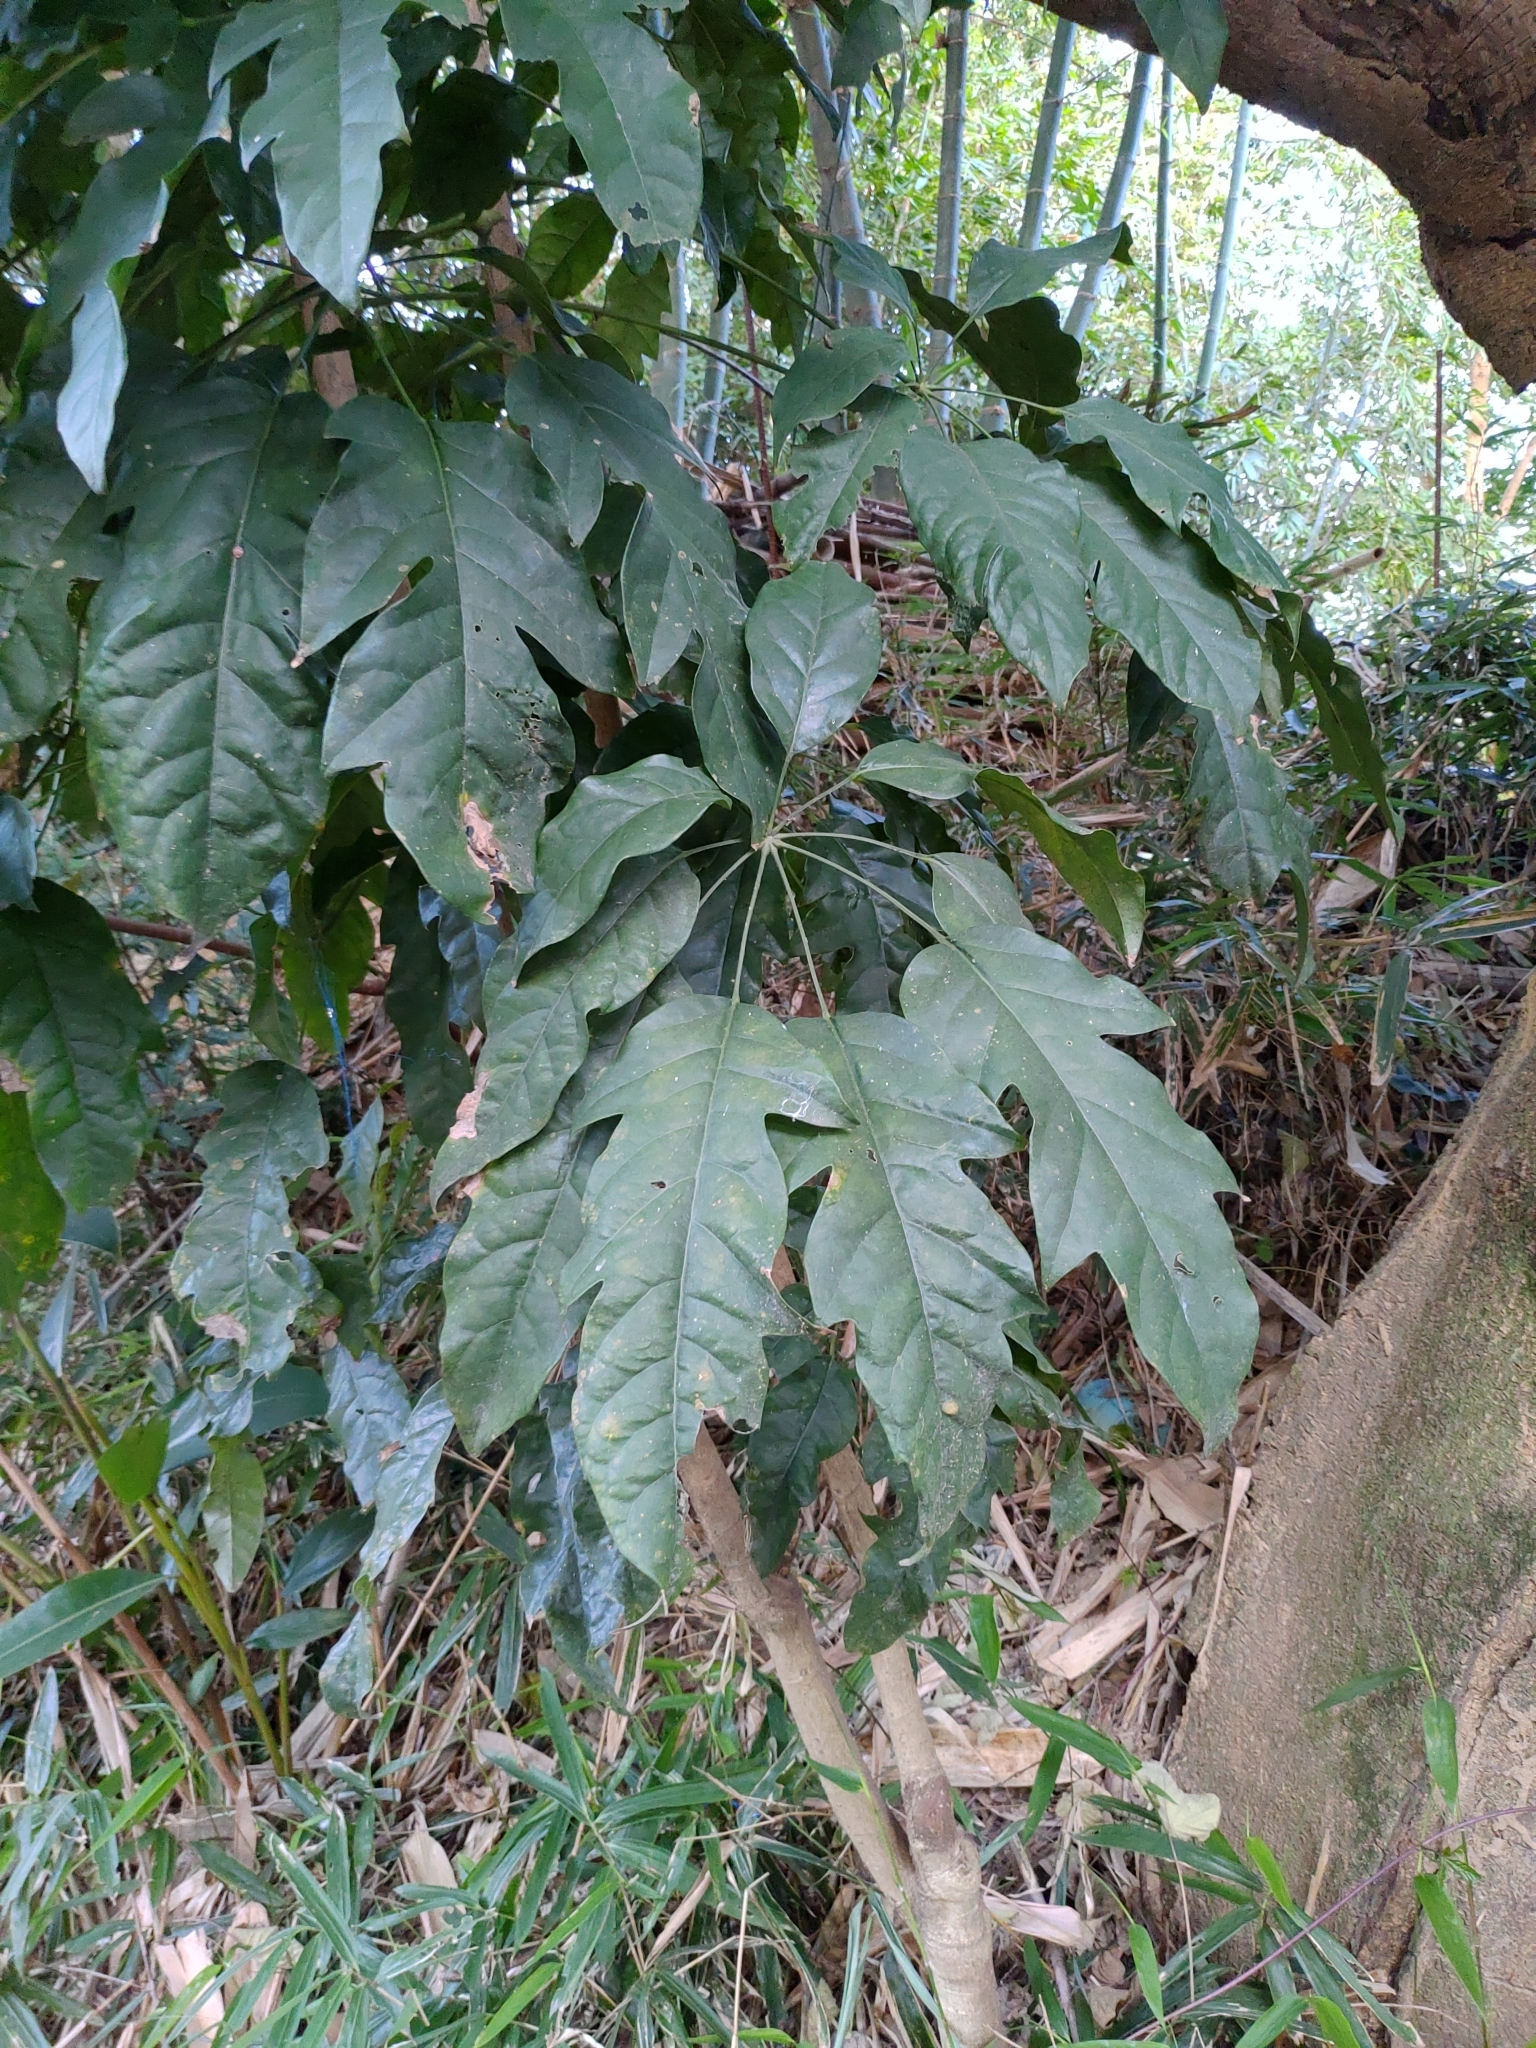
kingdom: Plantae
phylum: Tracheophyta
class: Magnoliopsida
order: Apiales
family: Araliaceae
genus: Heptapleurum
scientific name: Heptapleurum heptaphyllum
